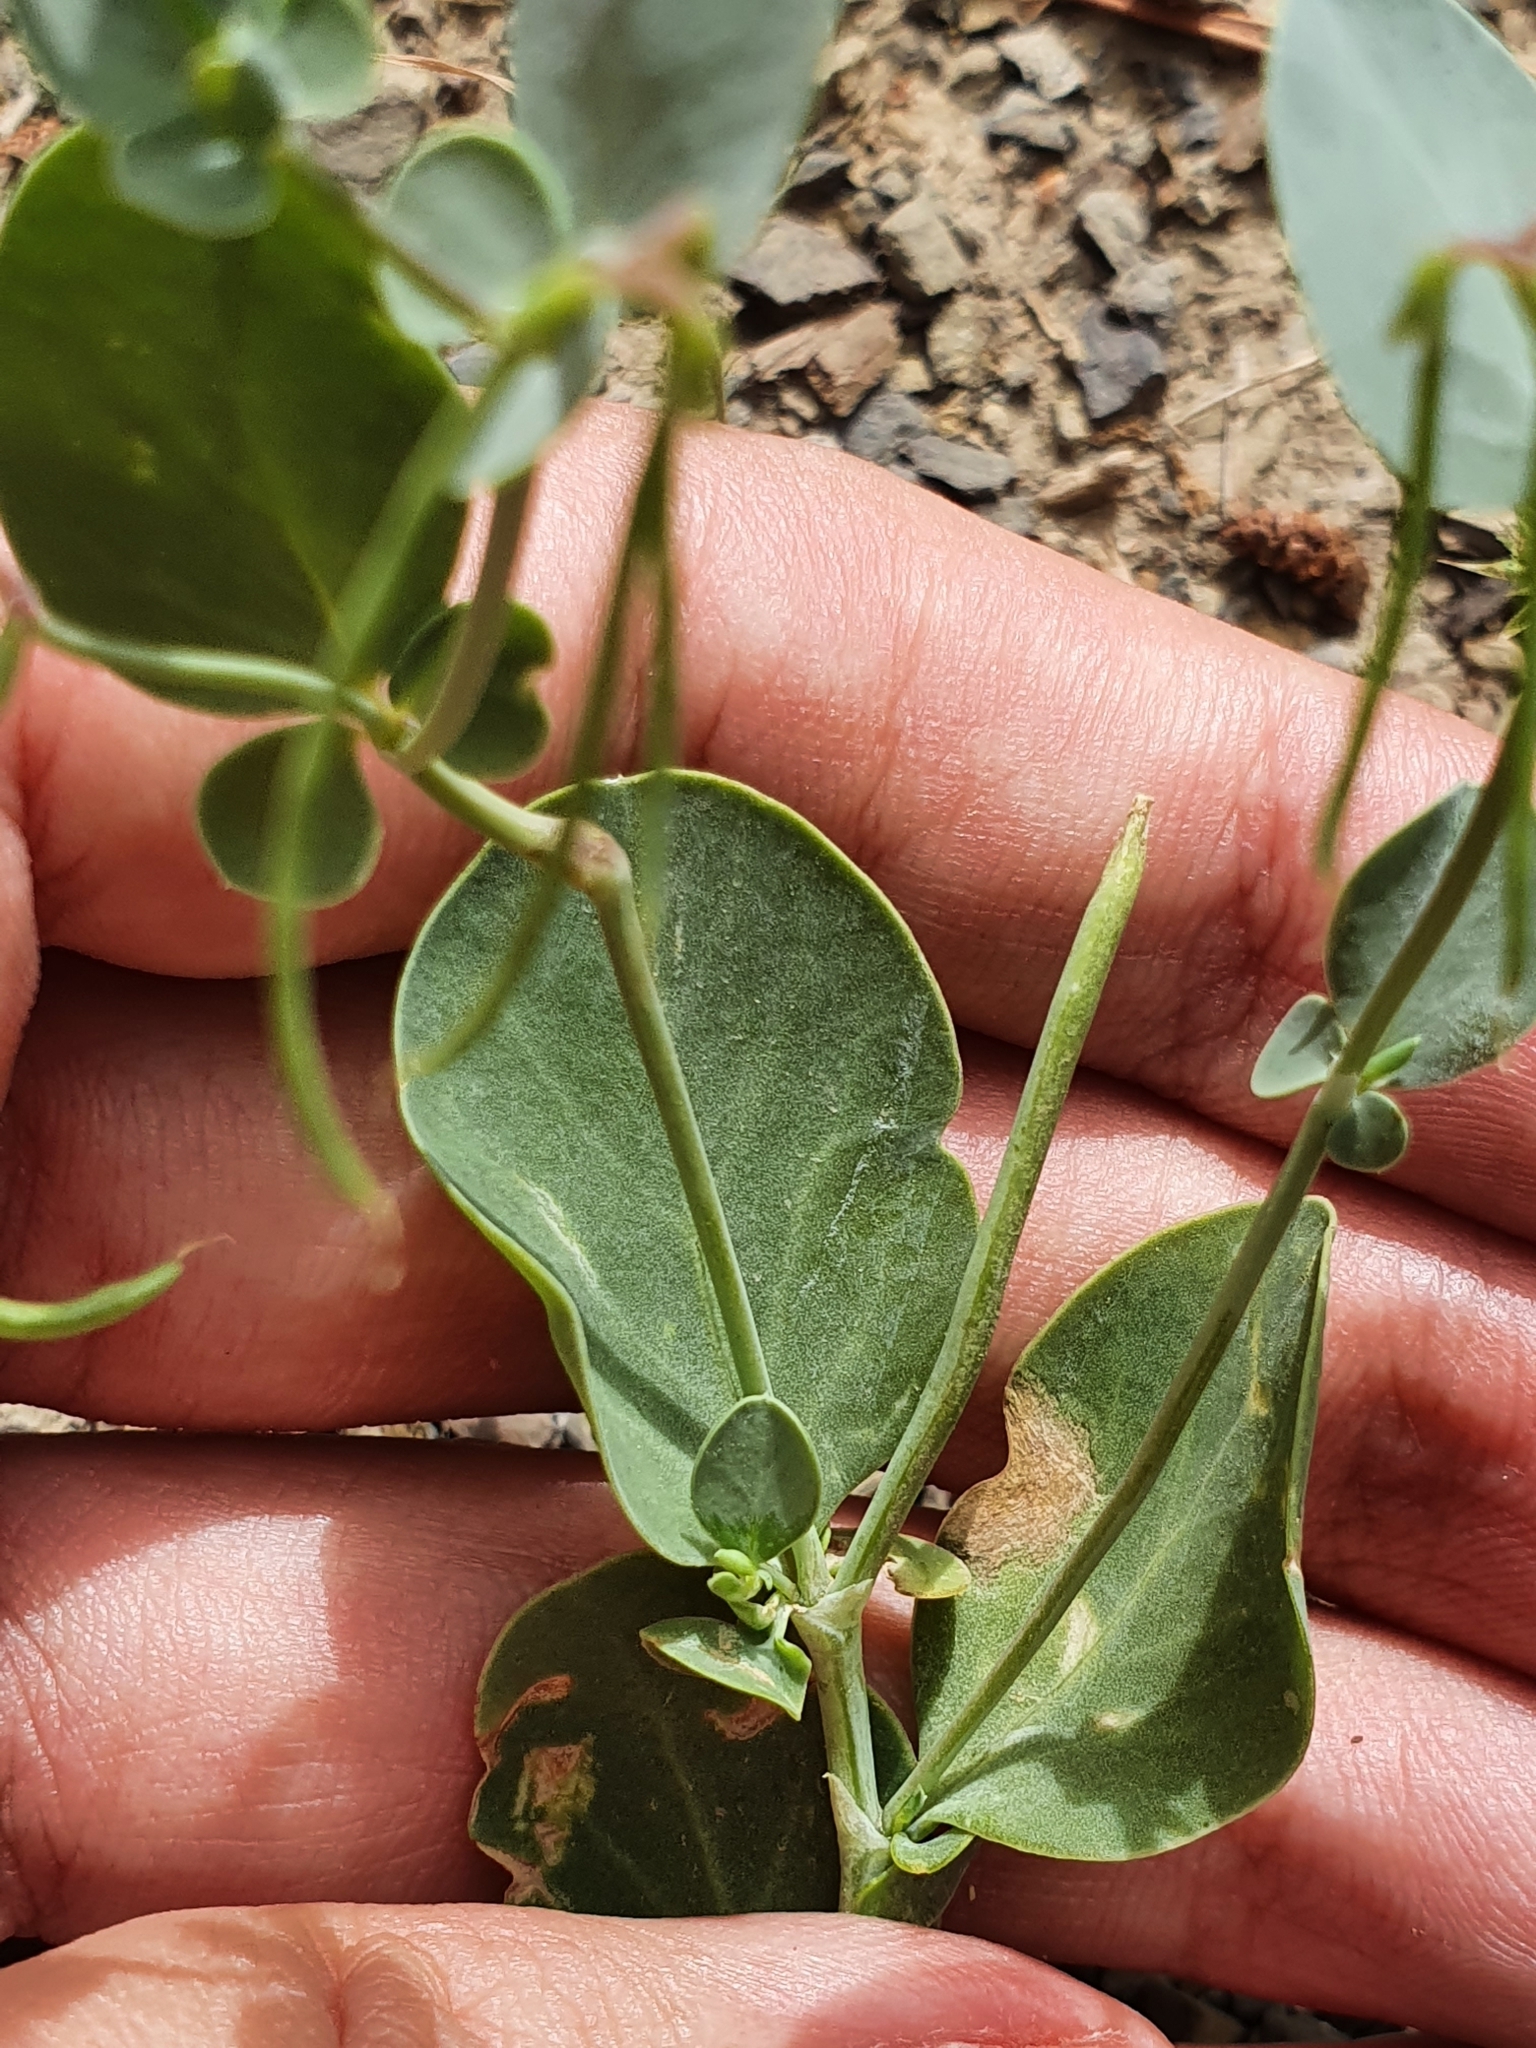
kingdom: Plantae
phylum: Tracheophyta
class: Magnoliopsida
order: Fabales
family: Fabaceae
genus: Coronilla
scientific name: Coronilla scorpioides
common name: Annual scorpion-vetch
